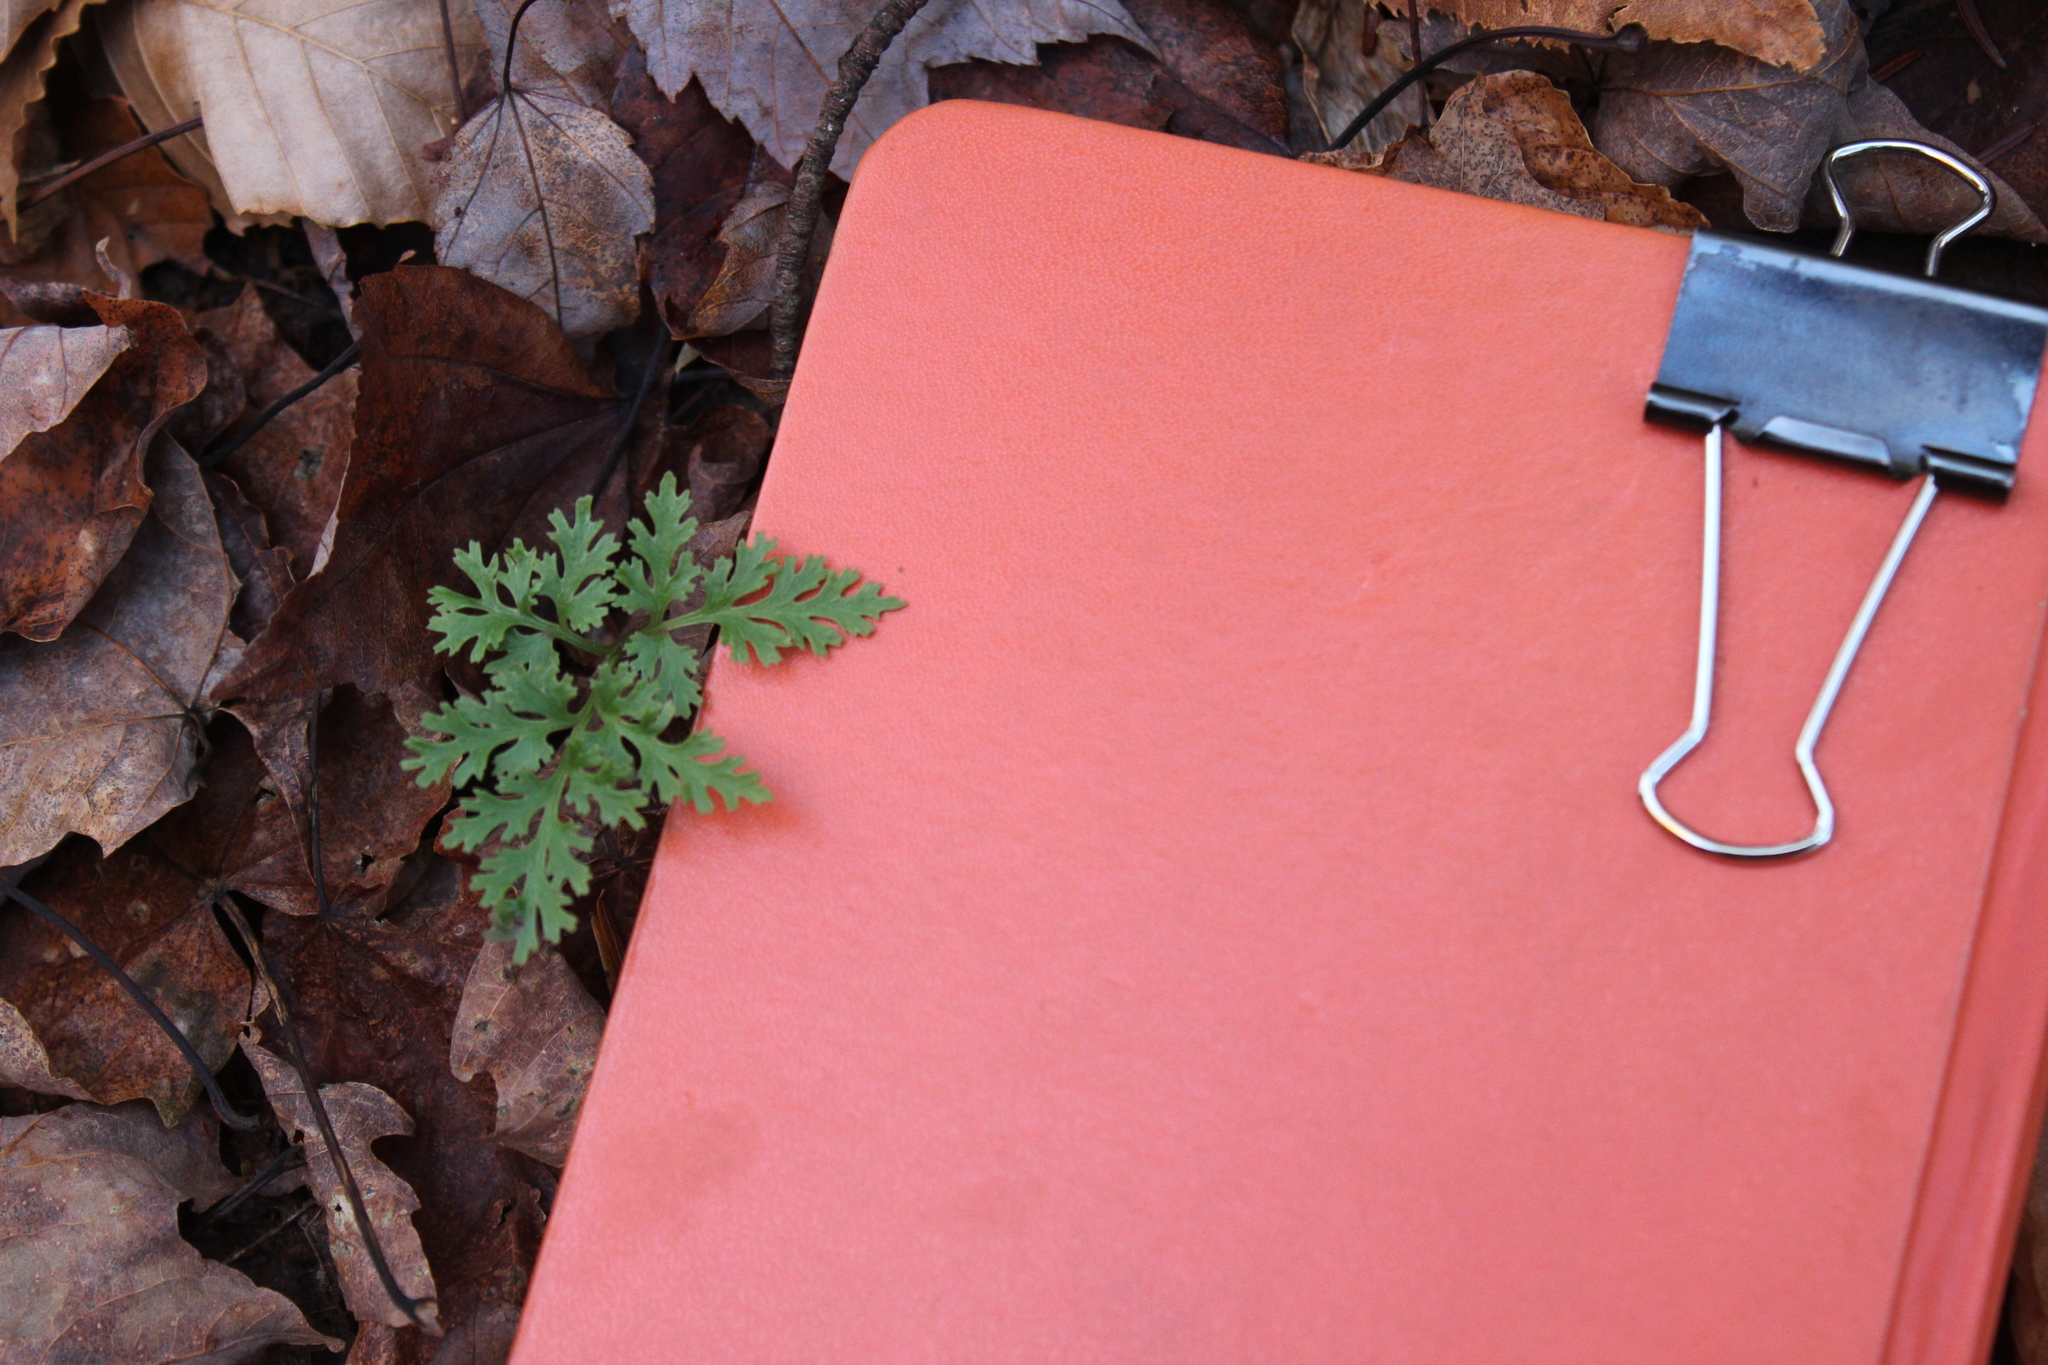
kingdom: Plantae
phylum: Tracheophyta
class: Polypodiopsida
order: Ophioglossales
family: Ophioglossaceae
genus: Sceptridium
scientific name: Sceptridium dissectum
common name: Cut-leaved grapefern
